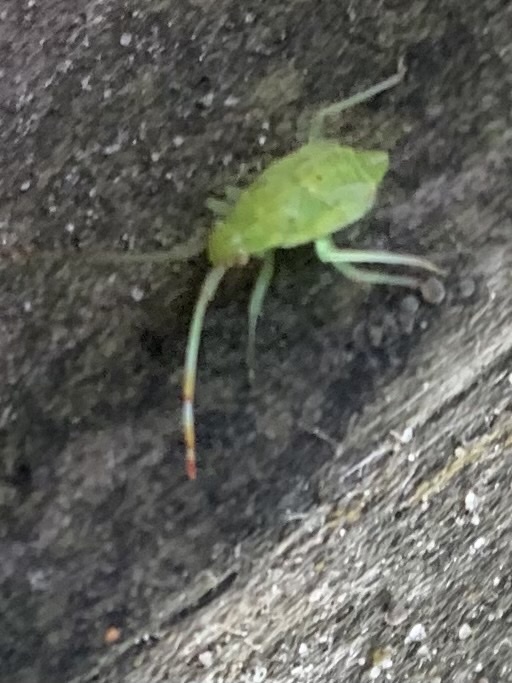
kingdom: Animalia
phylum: Arthropoda
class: Insecta
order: Hemiptera
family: Miridae
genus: Pantilius
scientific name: Pantilius tunicatus
